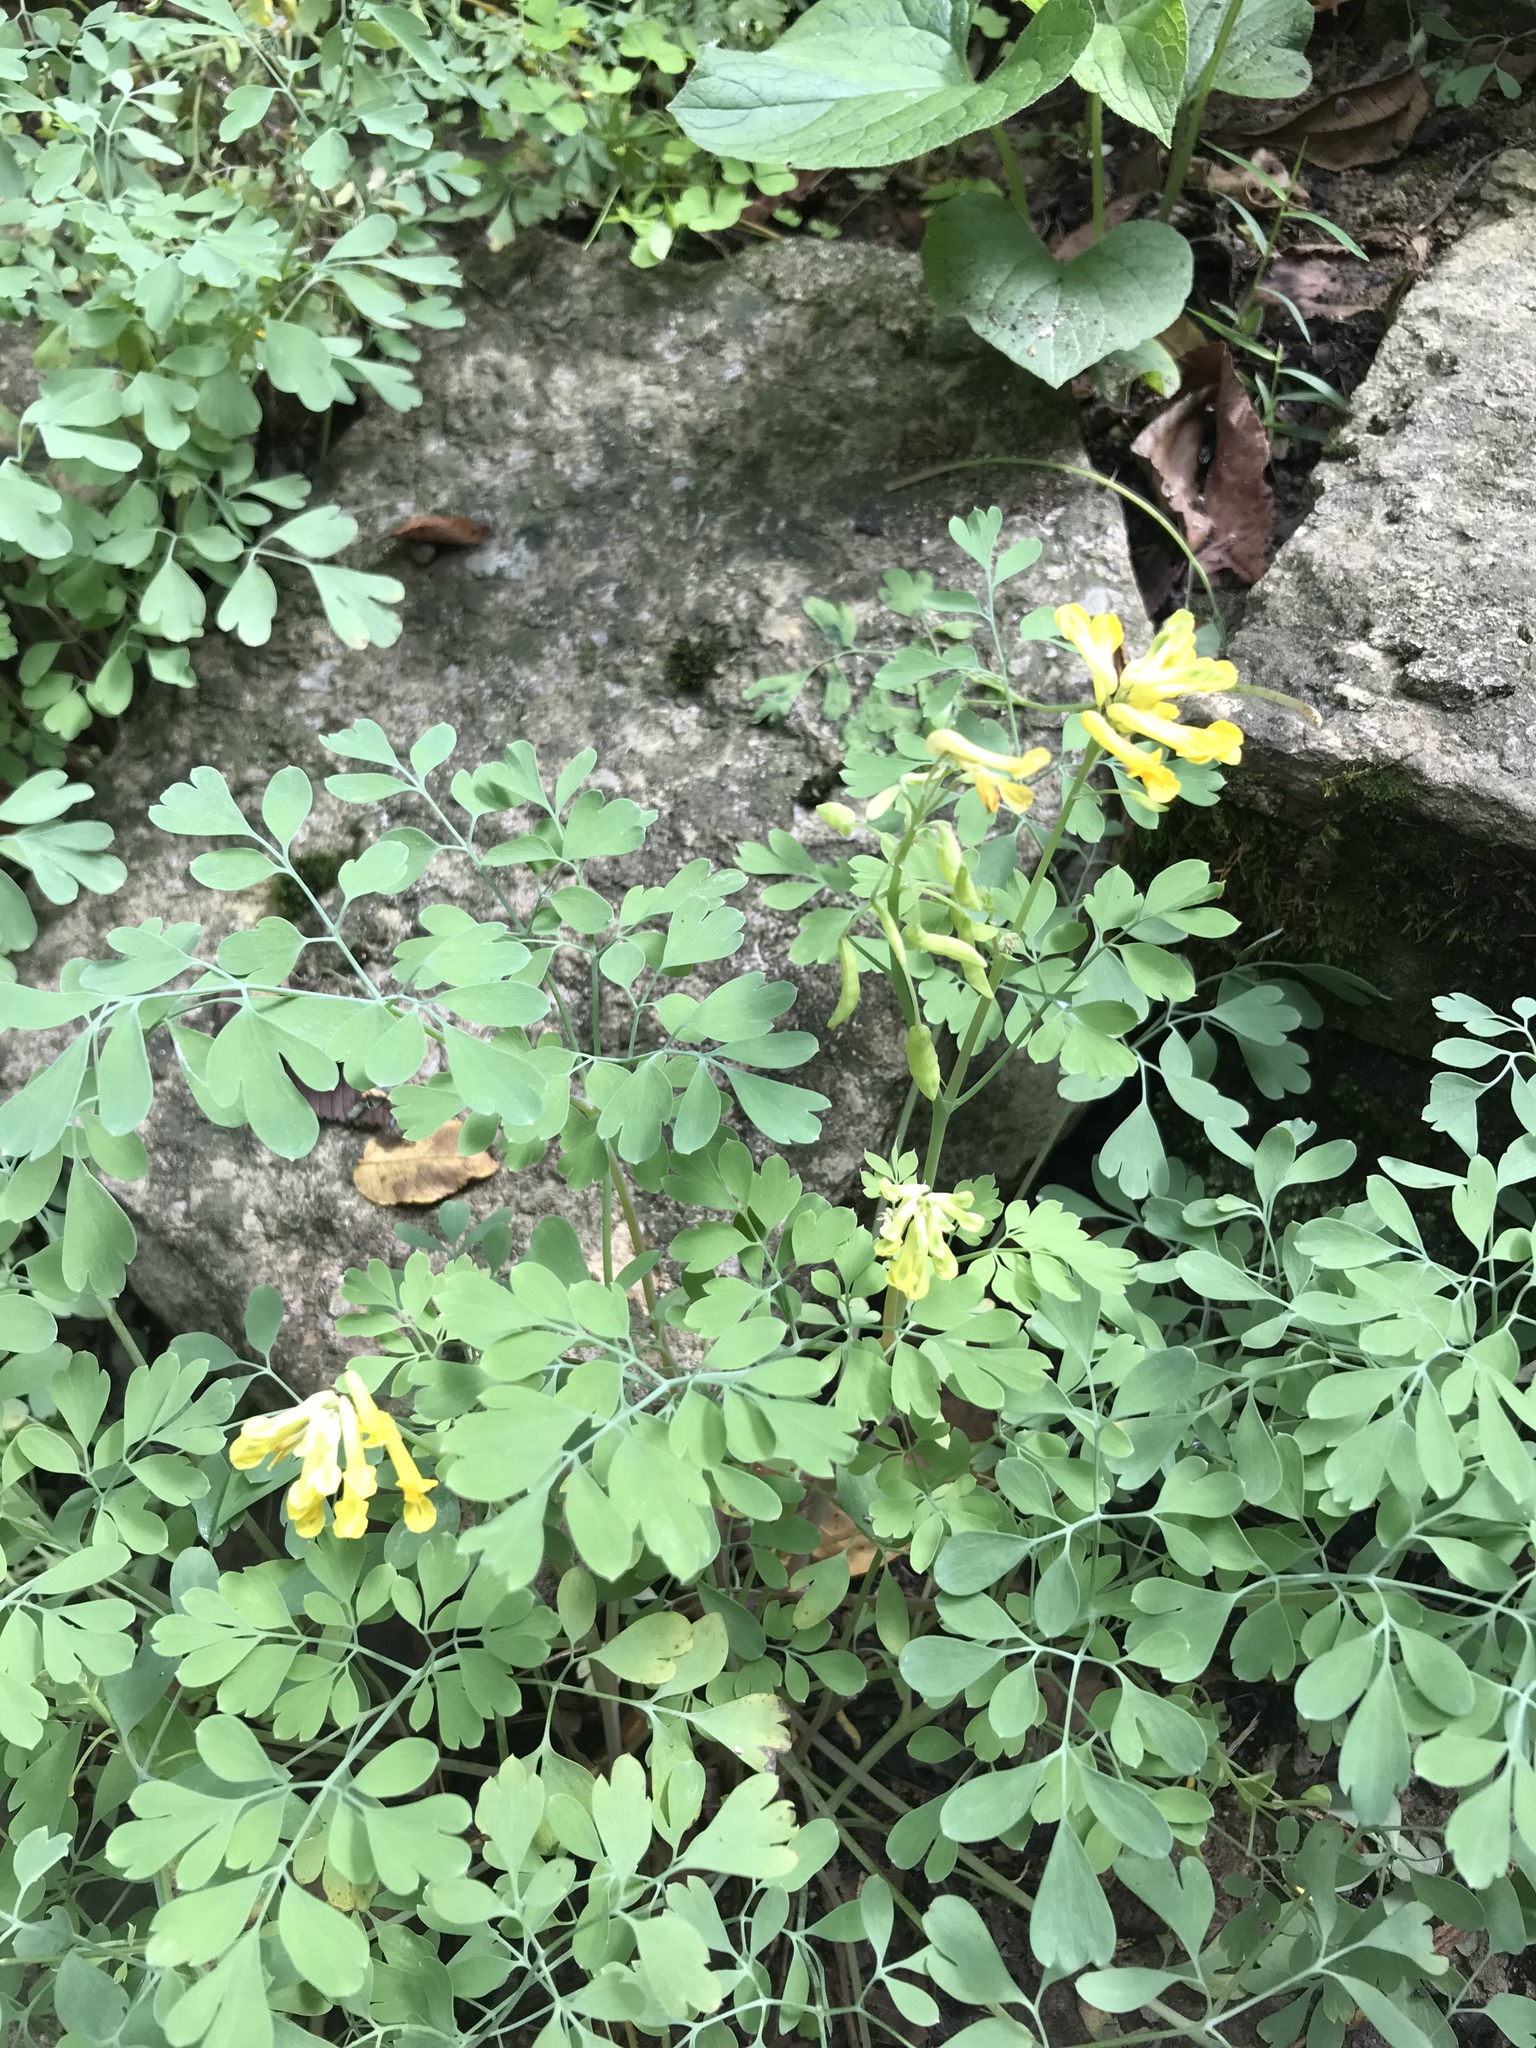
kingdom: Plantae
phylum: Tracheophyta
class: Magnoliopsida
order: Ranunculales
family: Papaveraceae
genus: Corydalis
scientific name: Corydalis flavula
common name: Yellow corydalis
